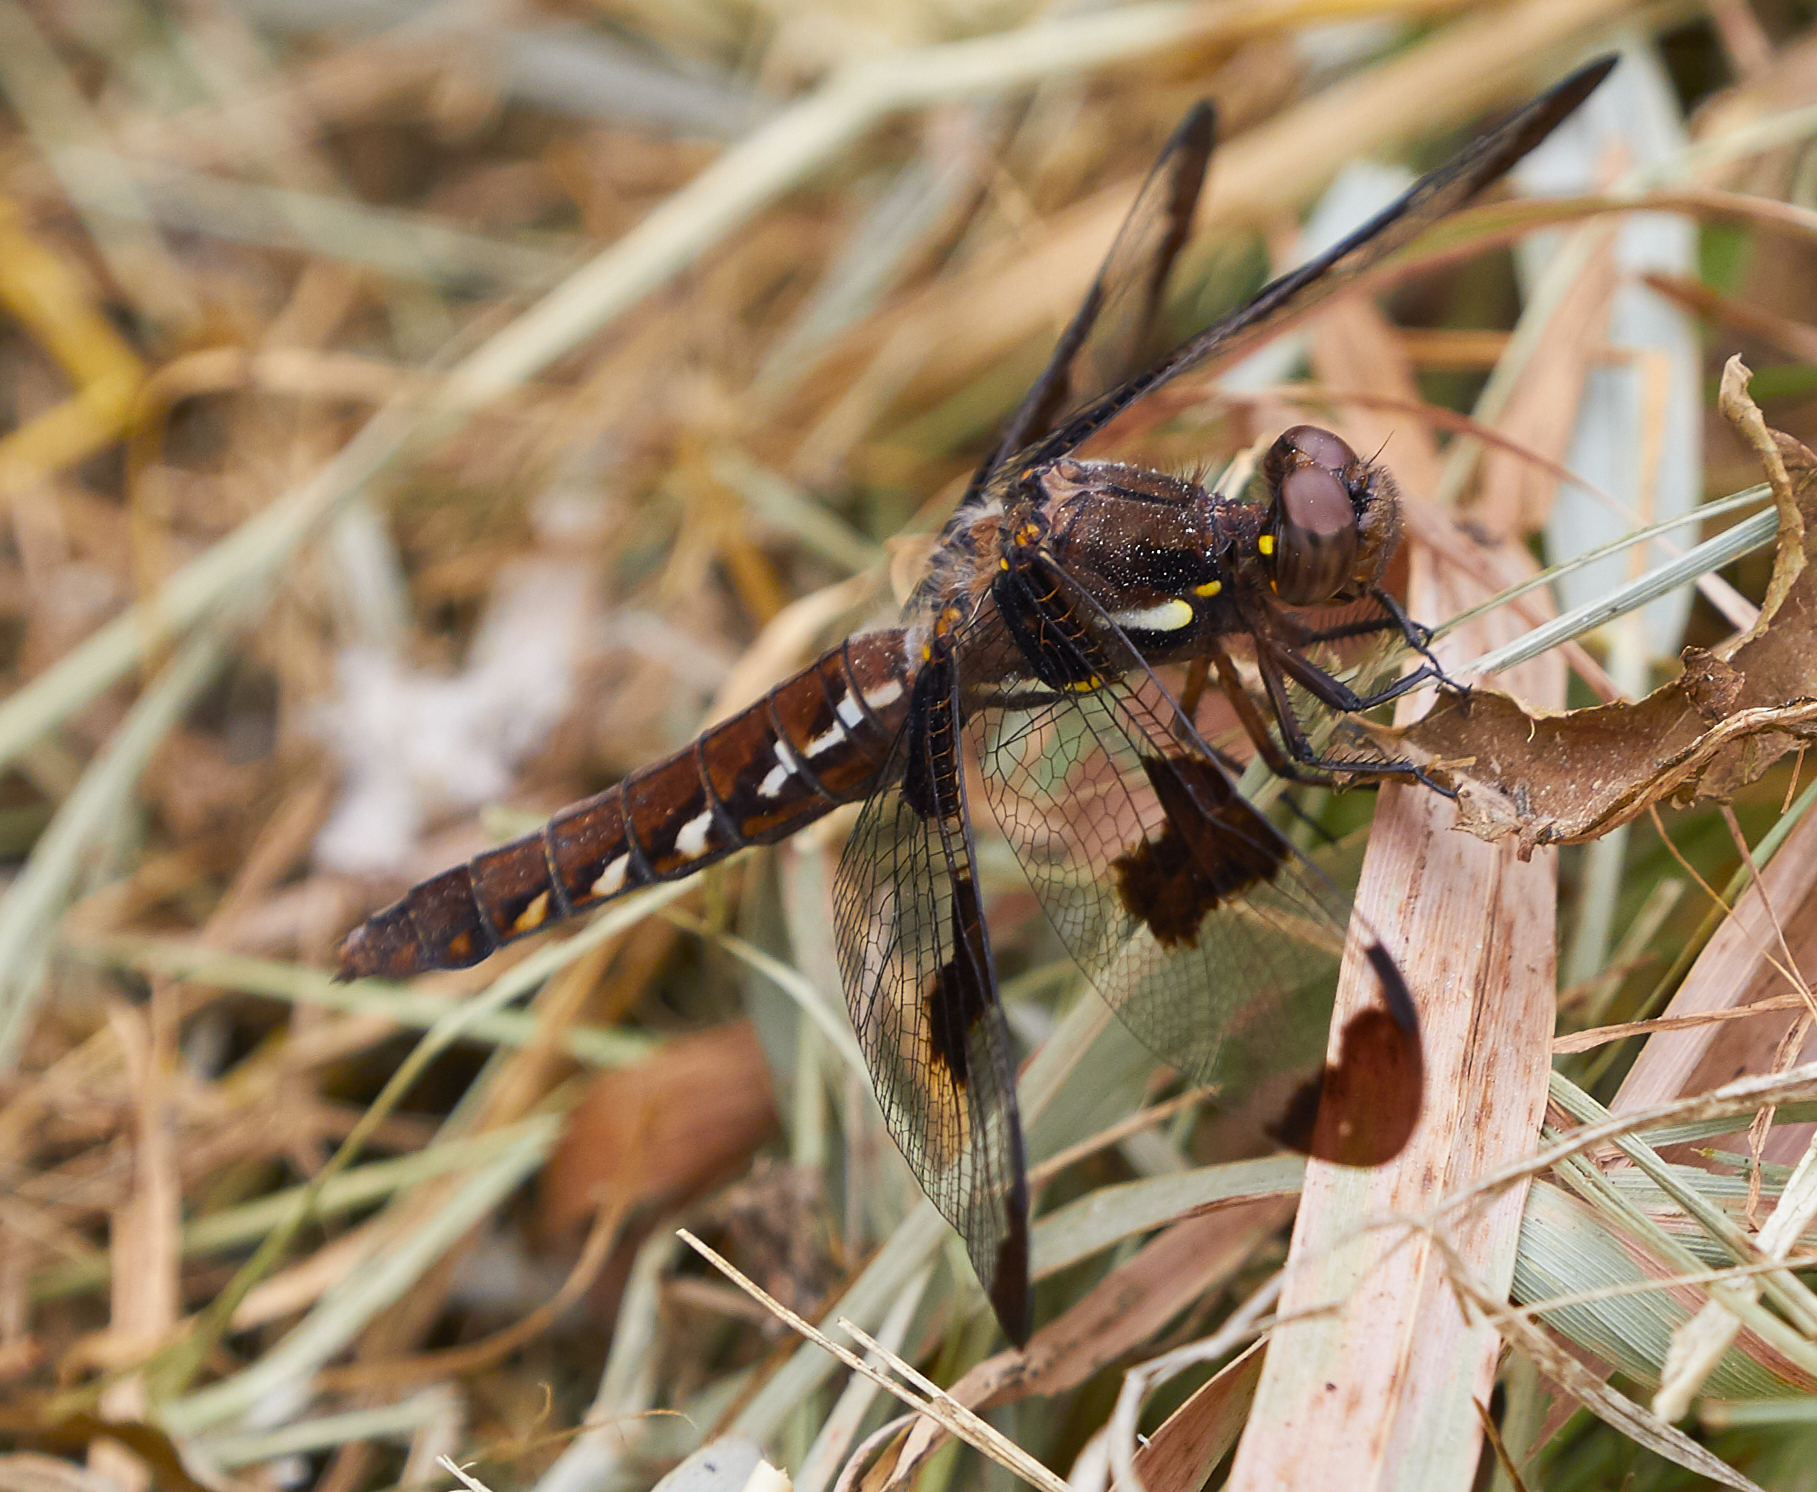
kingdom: Animalia
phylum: Arthropoda
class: Insecta
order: Odonata
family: Libellulidae
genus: Plathemis
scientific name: Plathemis lydia
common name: Common whitetail
